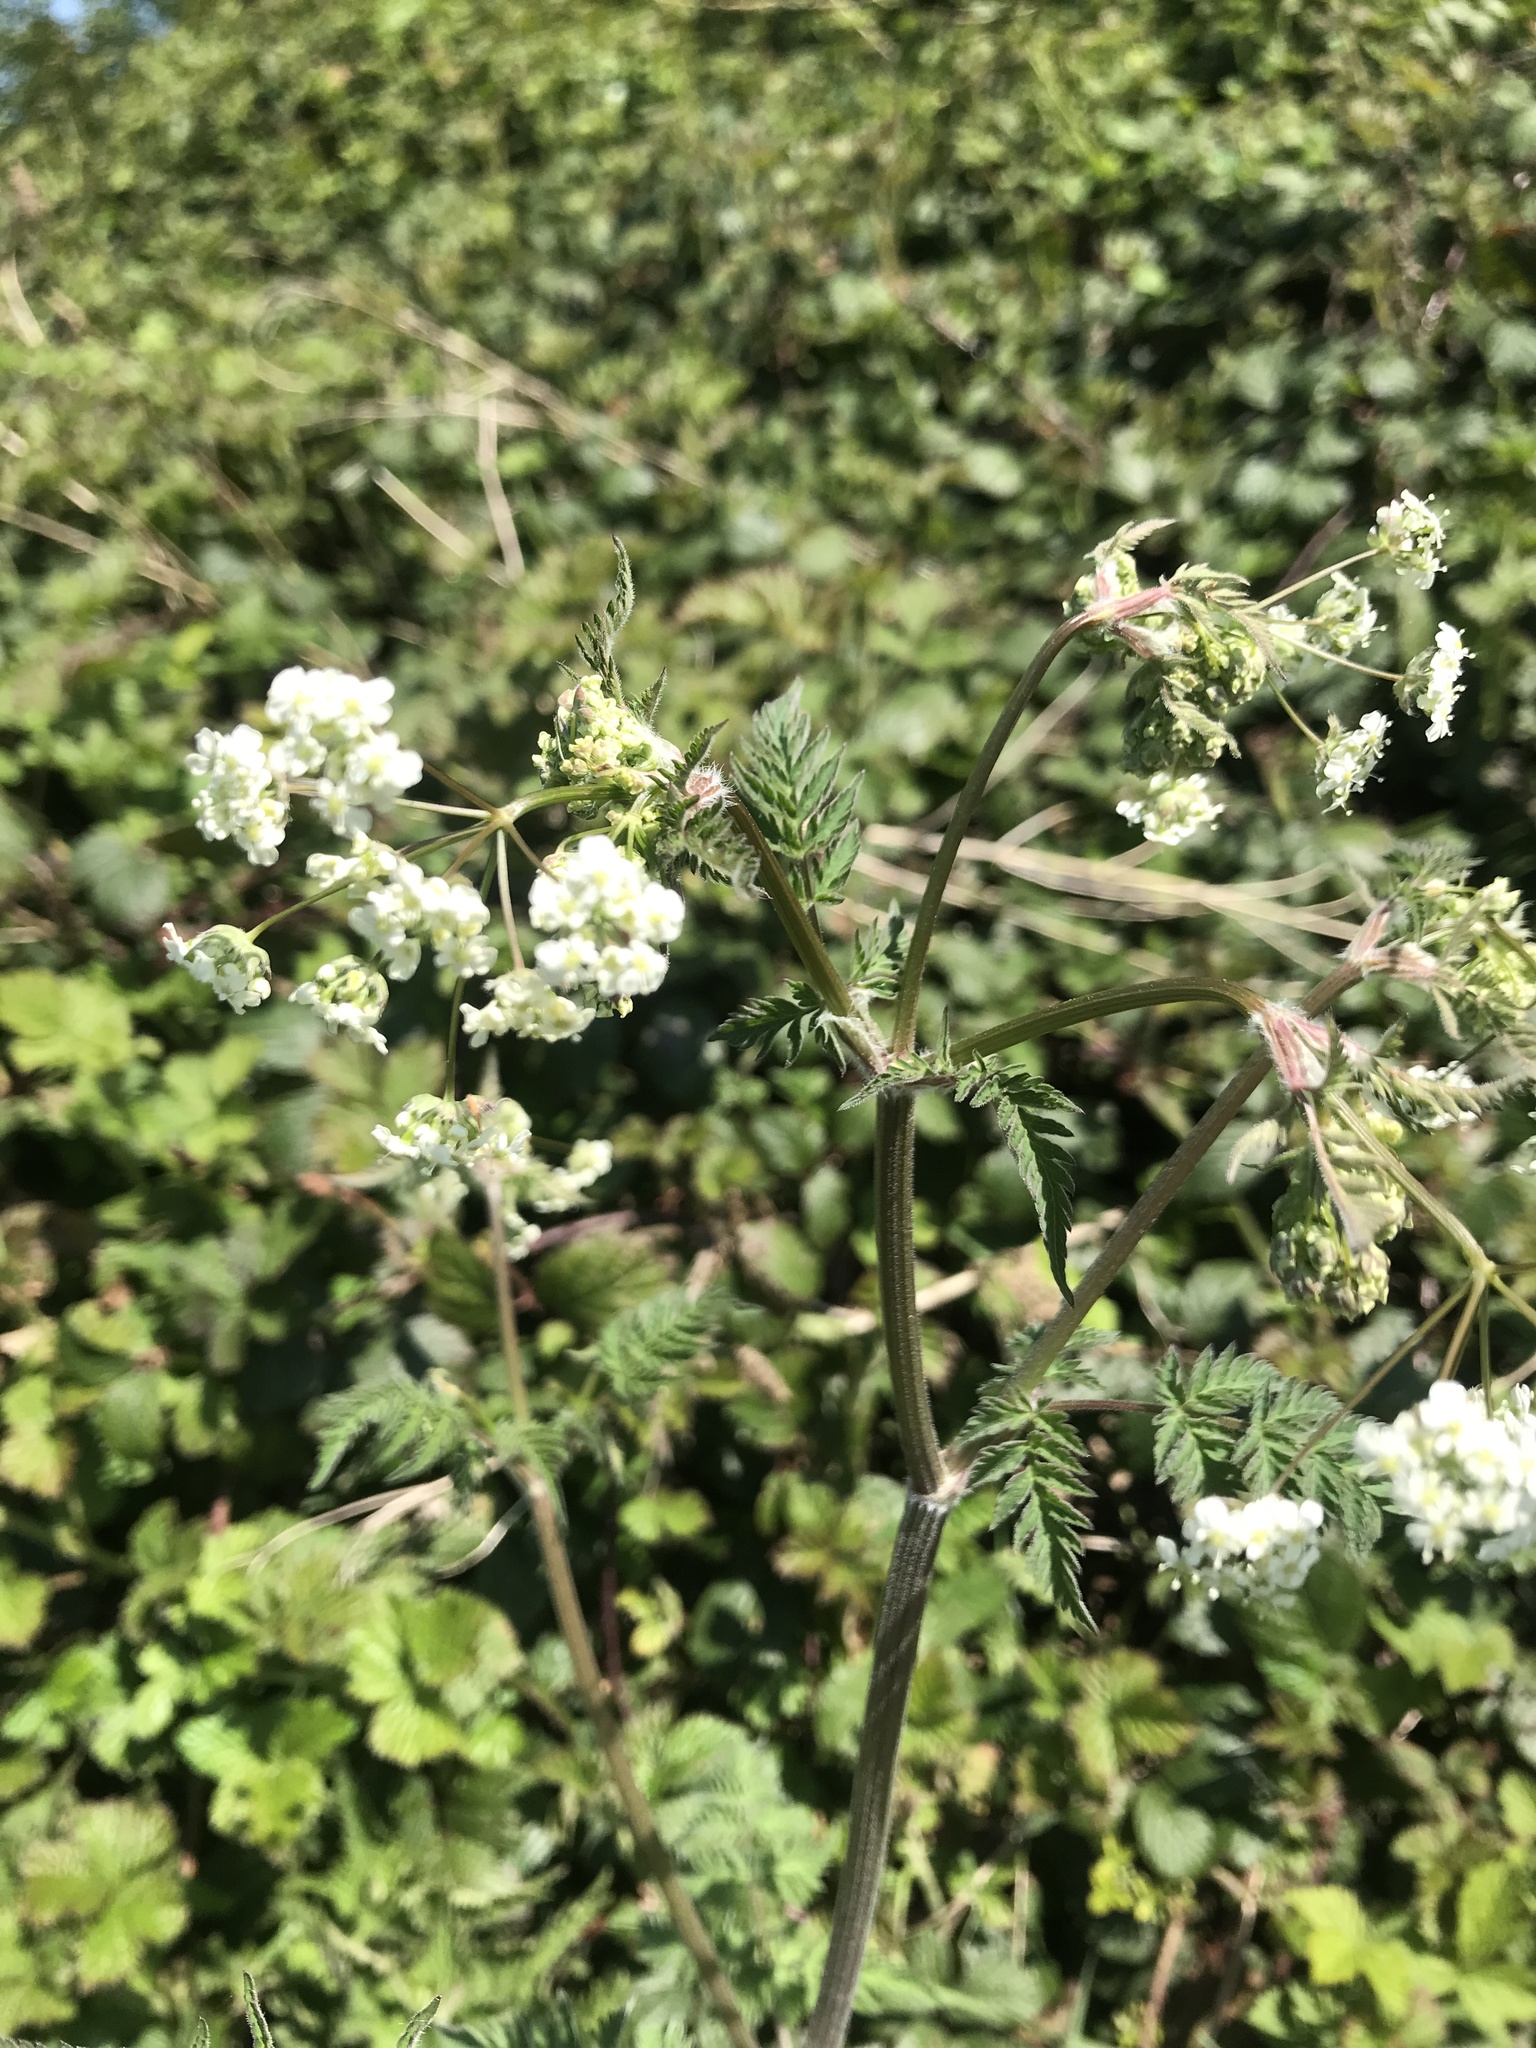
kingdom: Plantae
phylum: Tracheophyta
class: Magnoliopsida
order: Apiales
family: Apiaceae
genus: Anthriscus
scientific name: Anthriscus sylvestris
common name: Cow parsley
